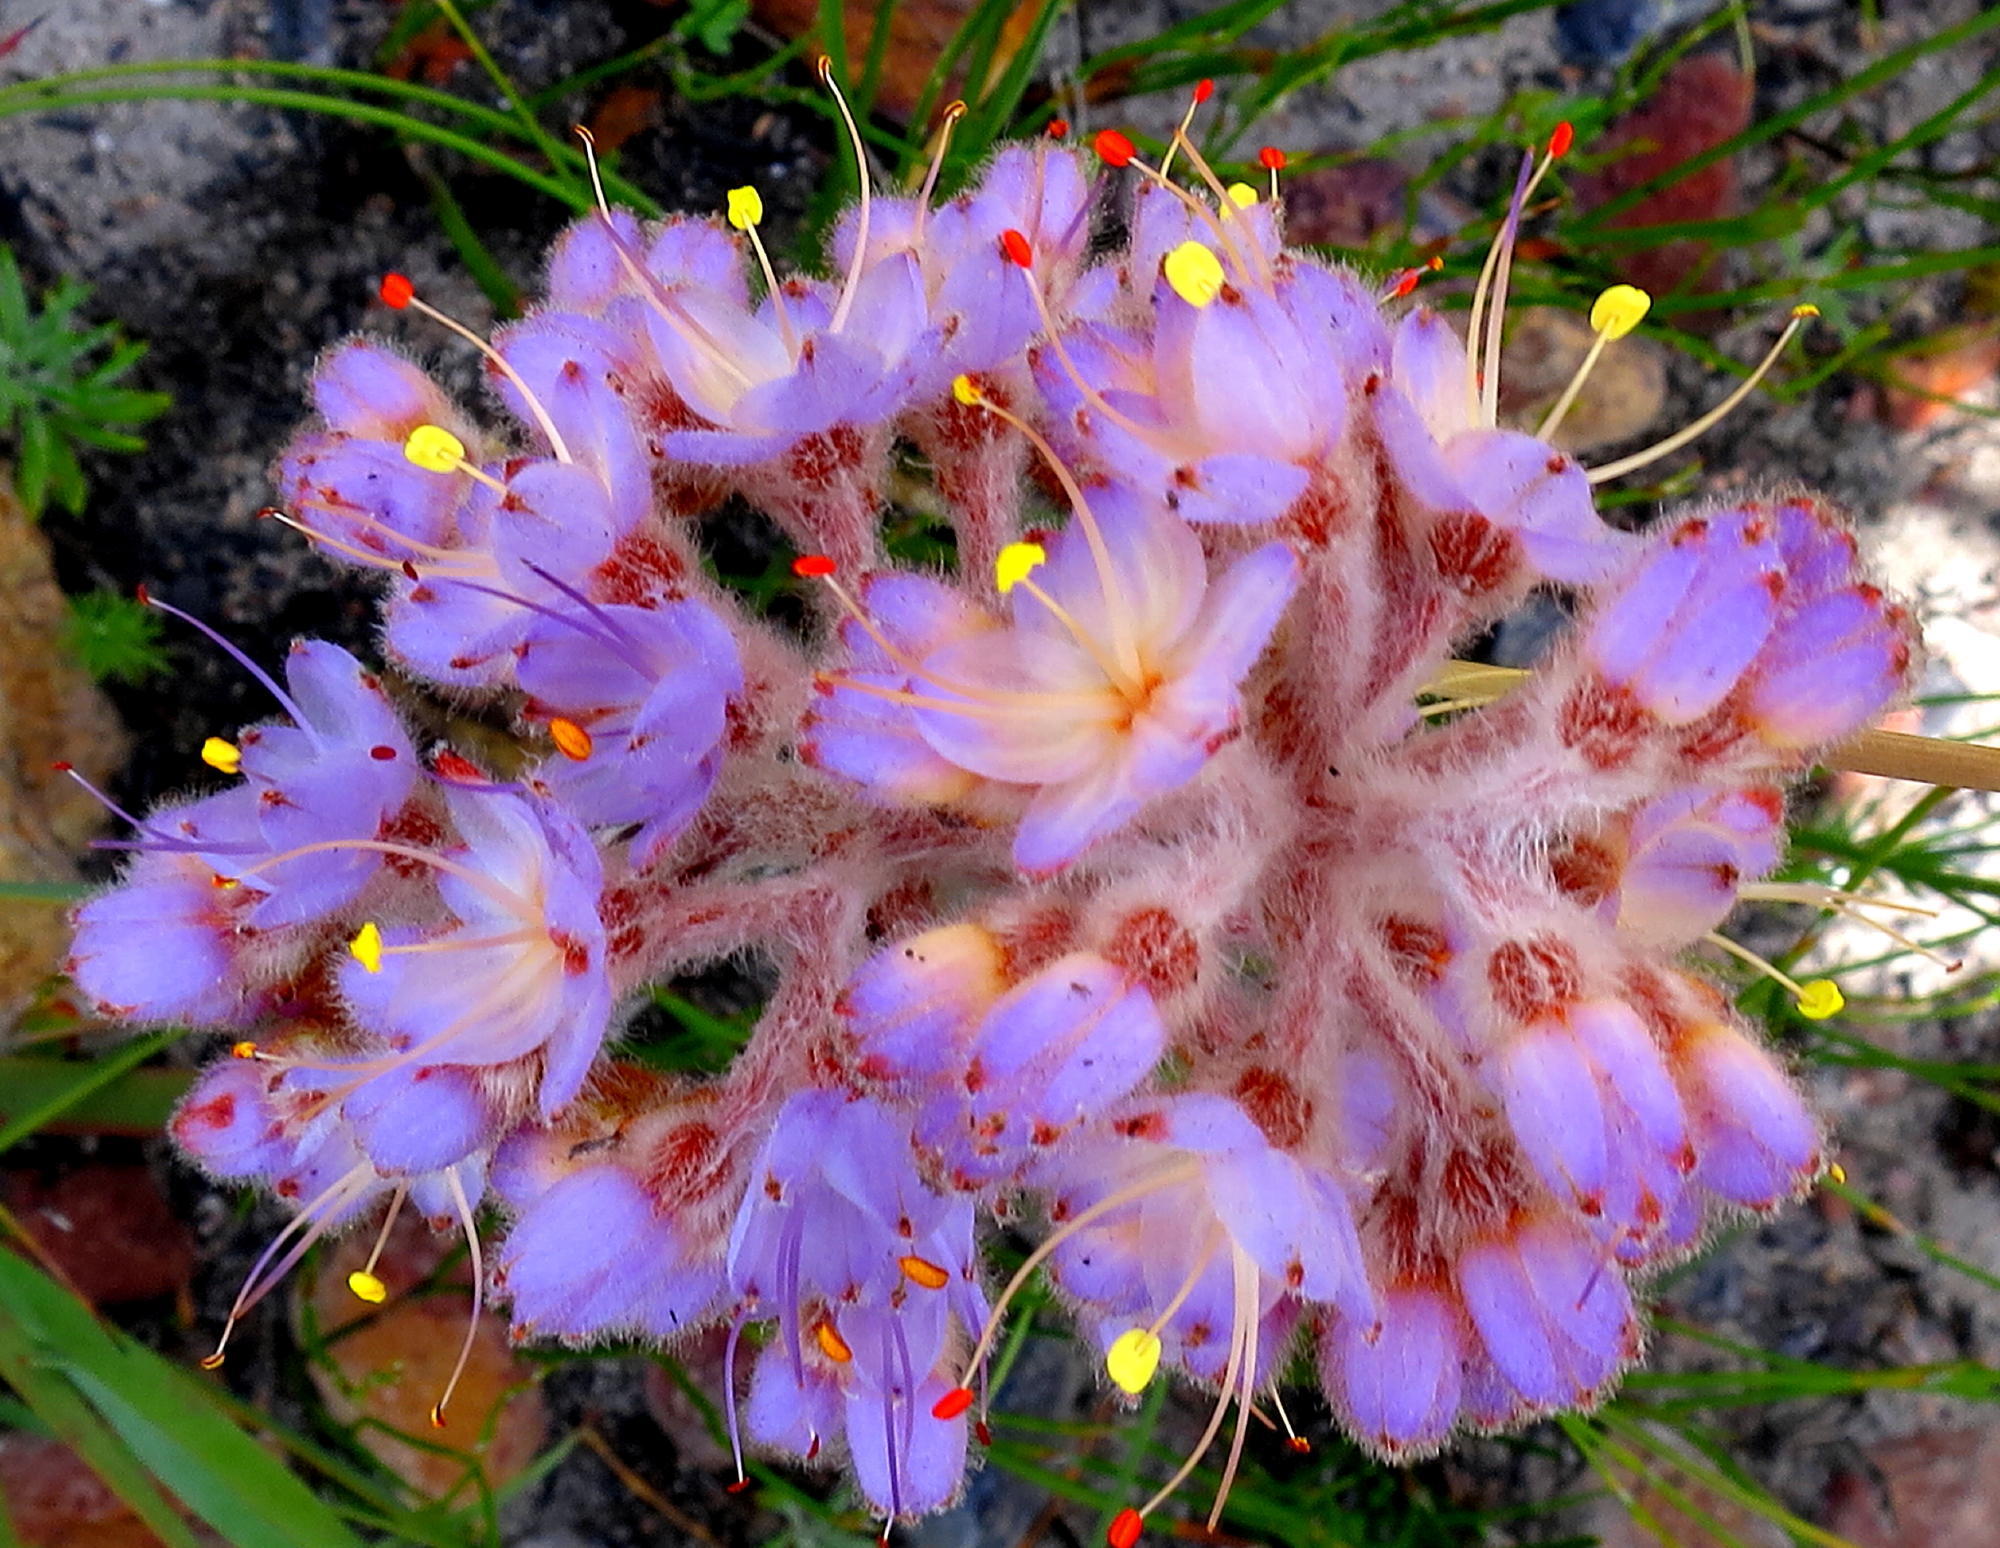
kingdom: Plantae
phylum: Tracheophyta
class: Liliopsida
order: Commelinales
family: Haemodoraceae
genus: Dilatris
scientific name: Dilatris ixioides
